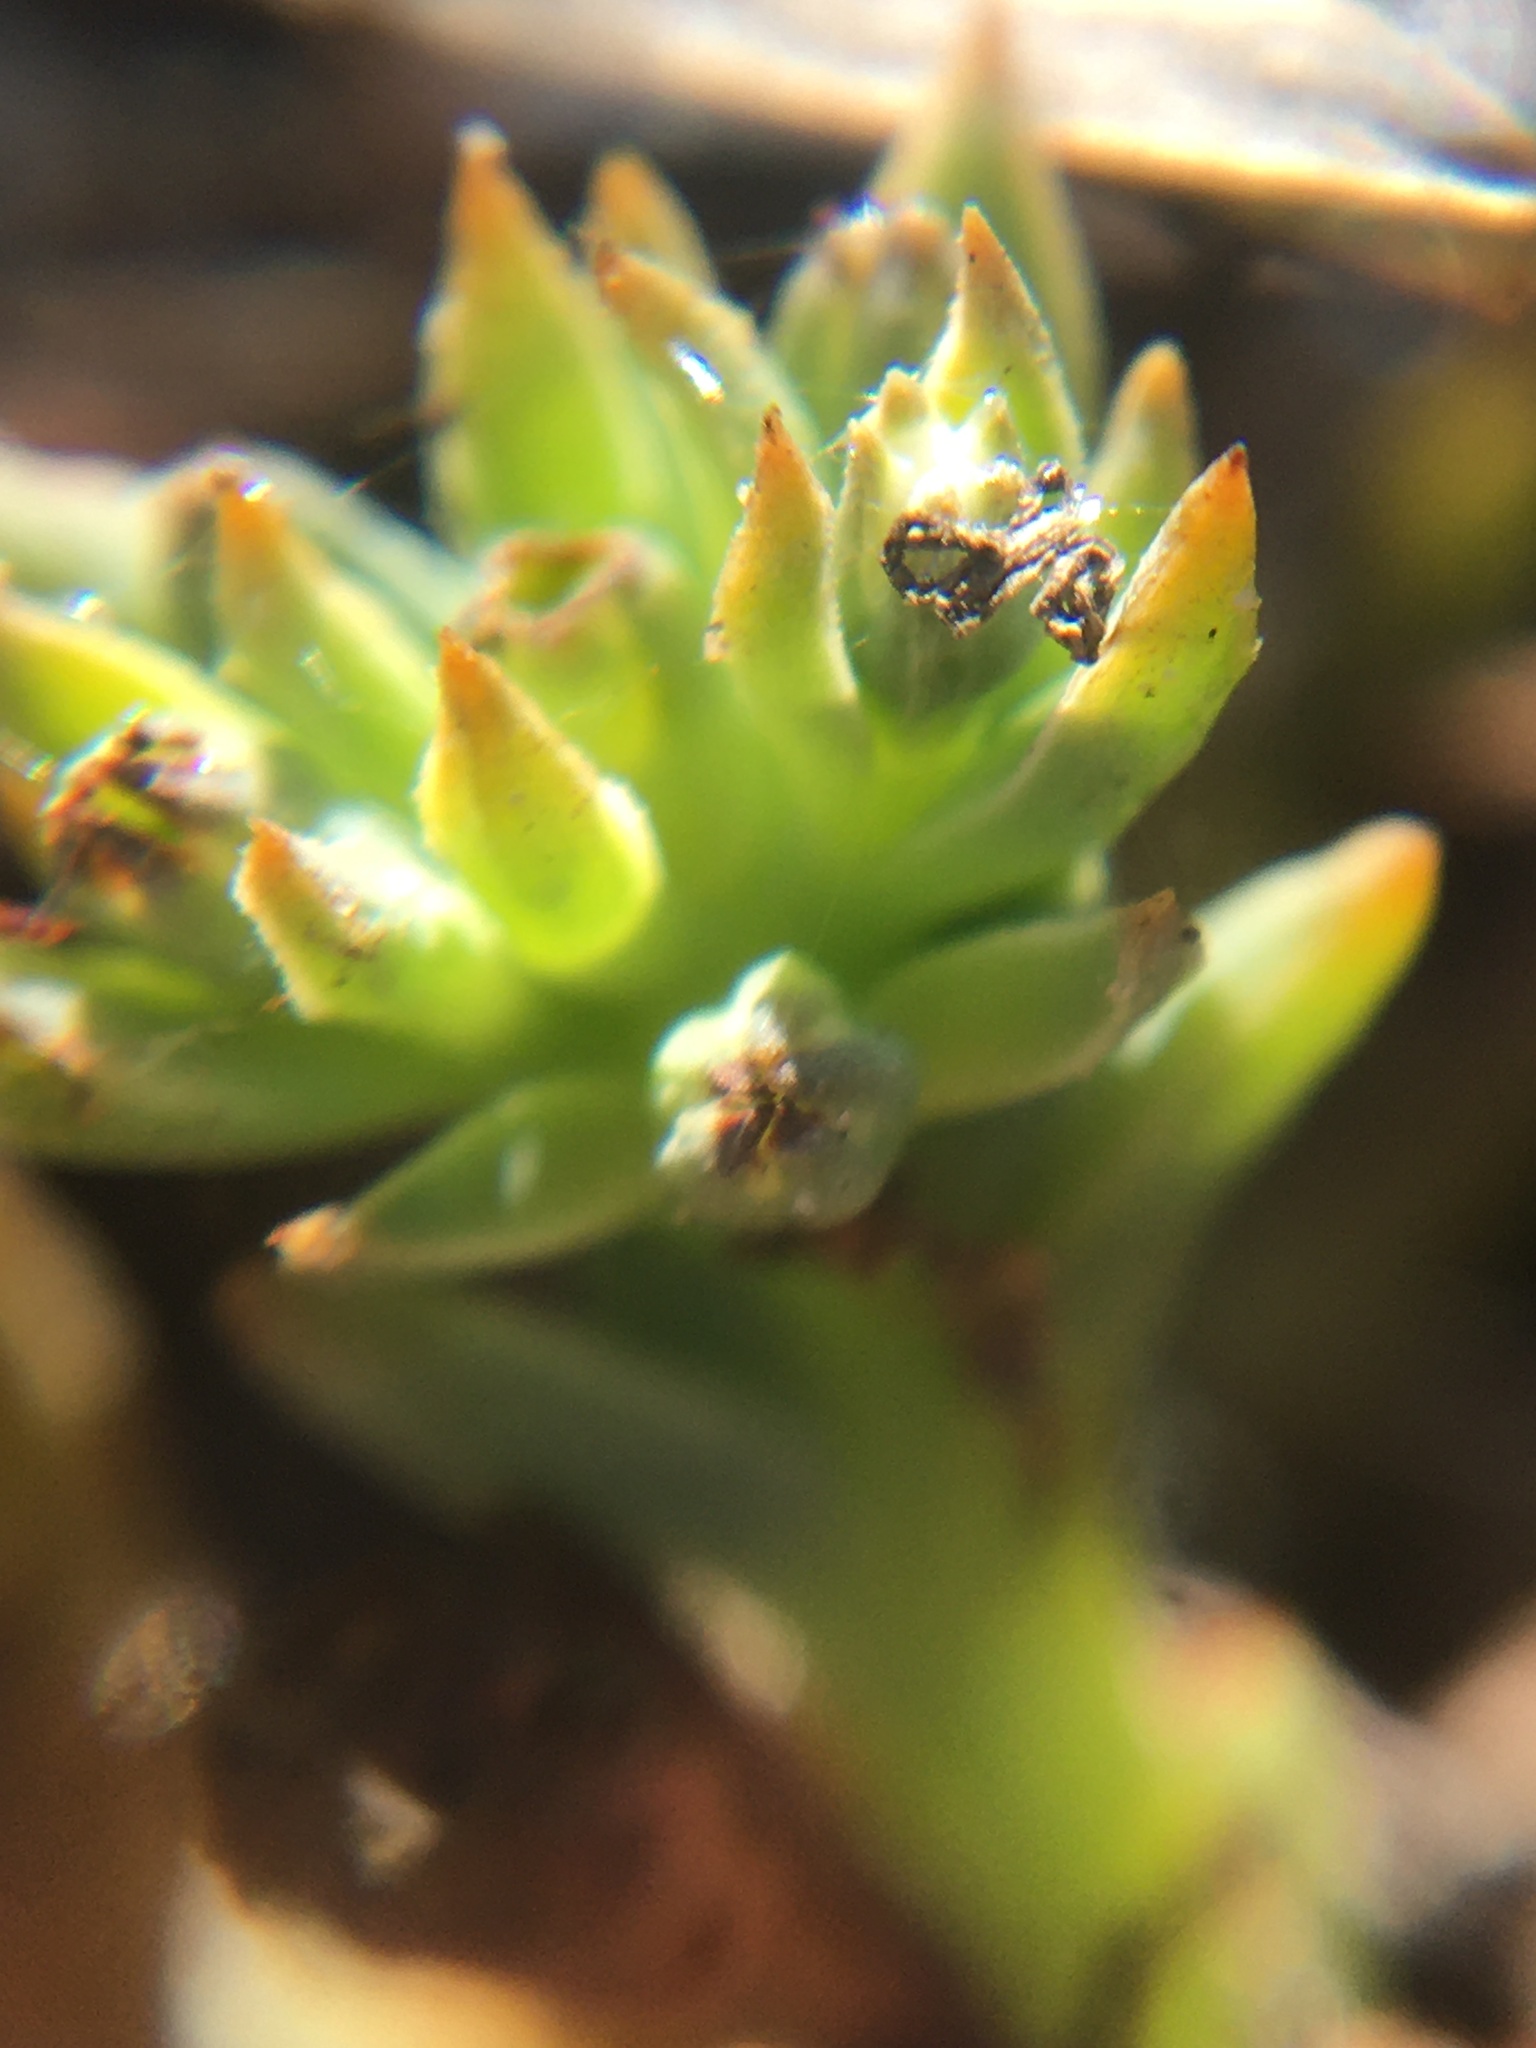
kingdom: Plantae
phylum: Tracheophyta
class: Magnoliopsida
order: Santalales
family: Thesiaceae
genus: Thesium
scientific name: Thesium ecklonianum
